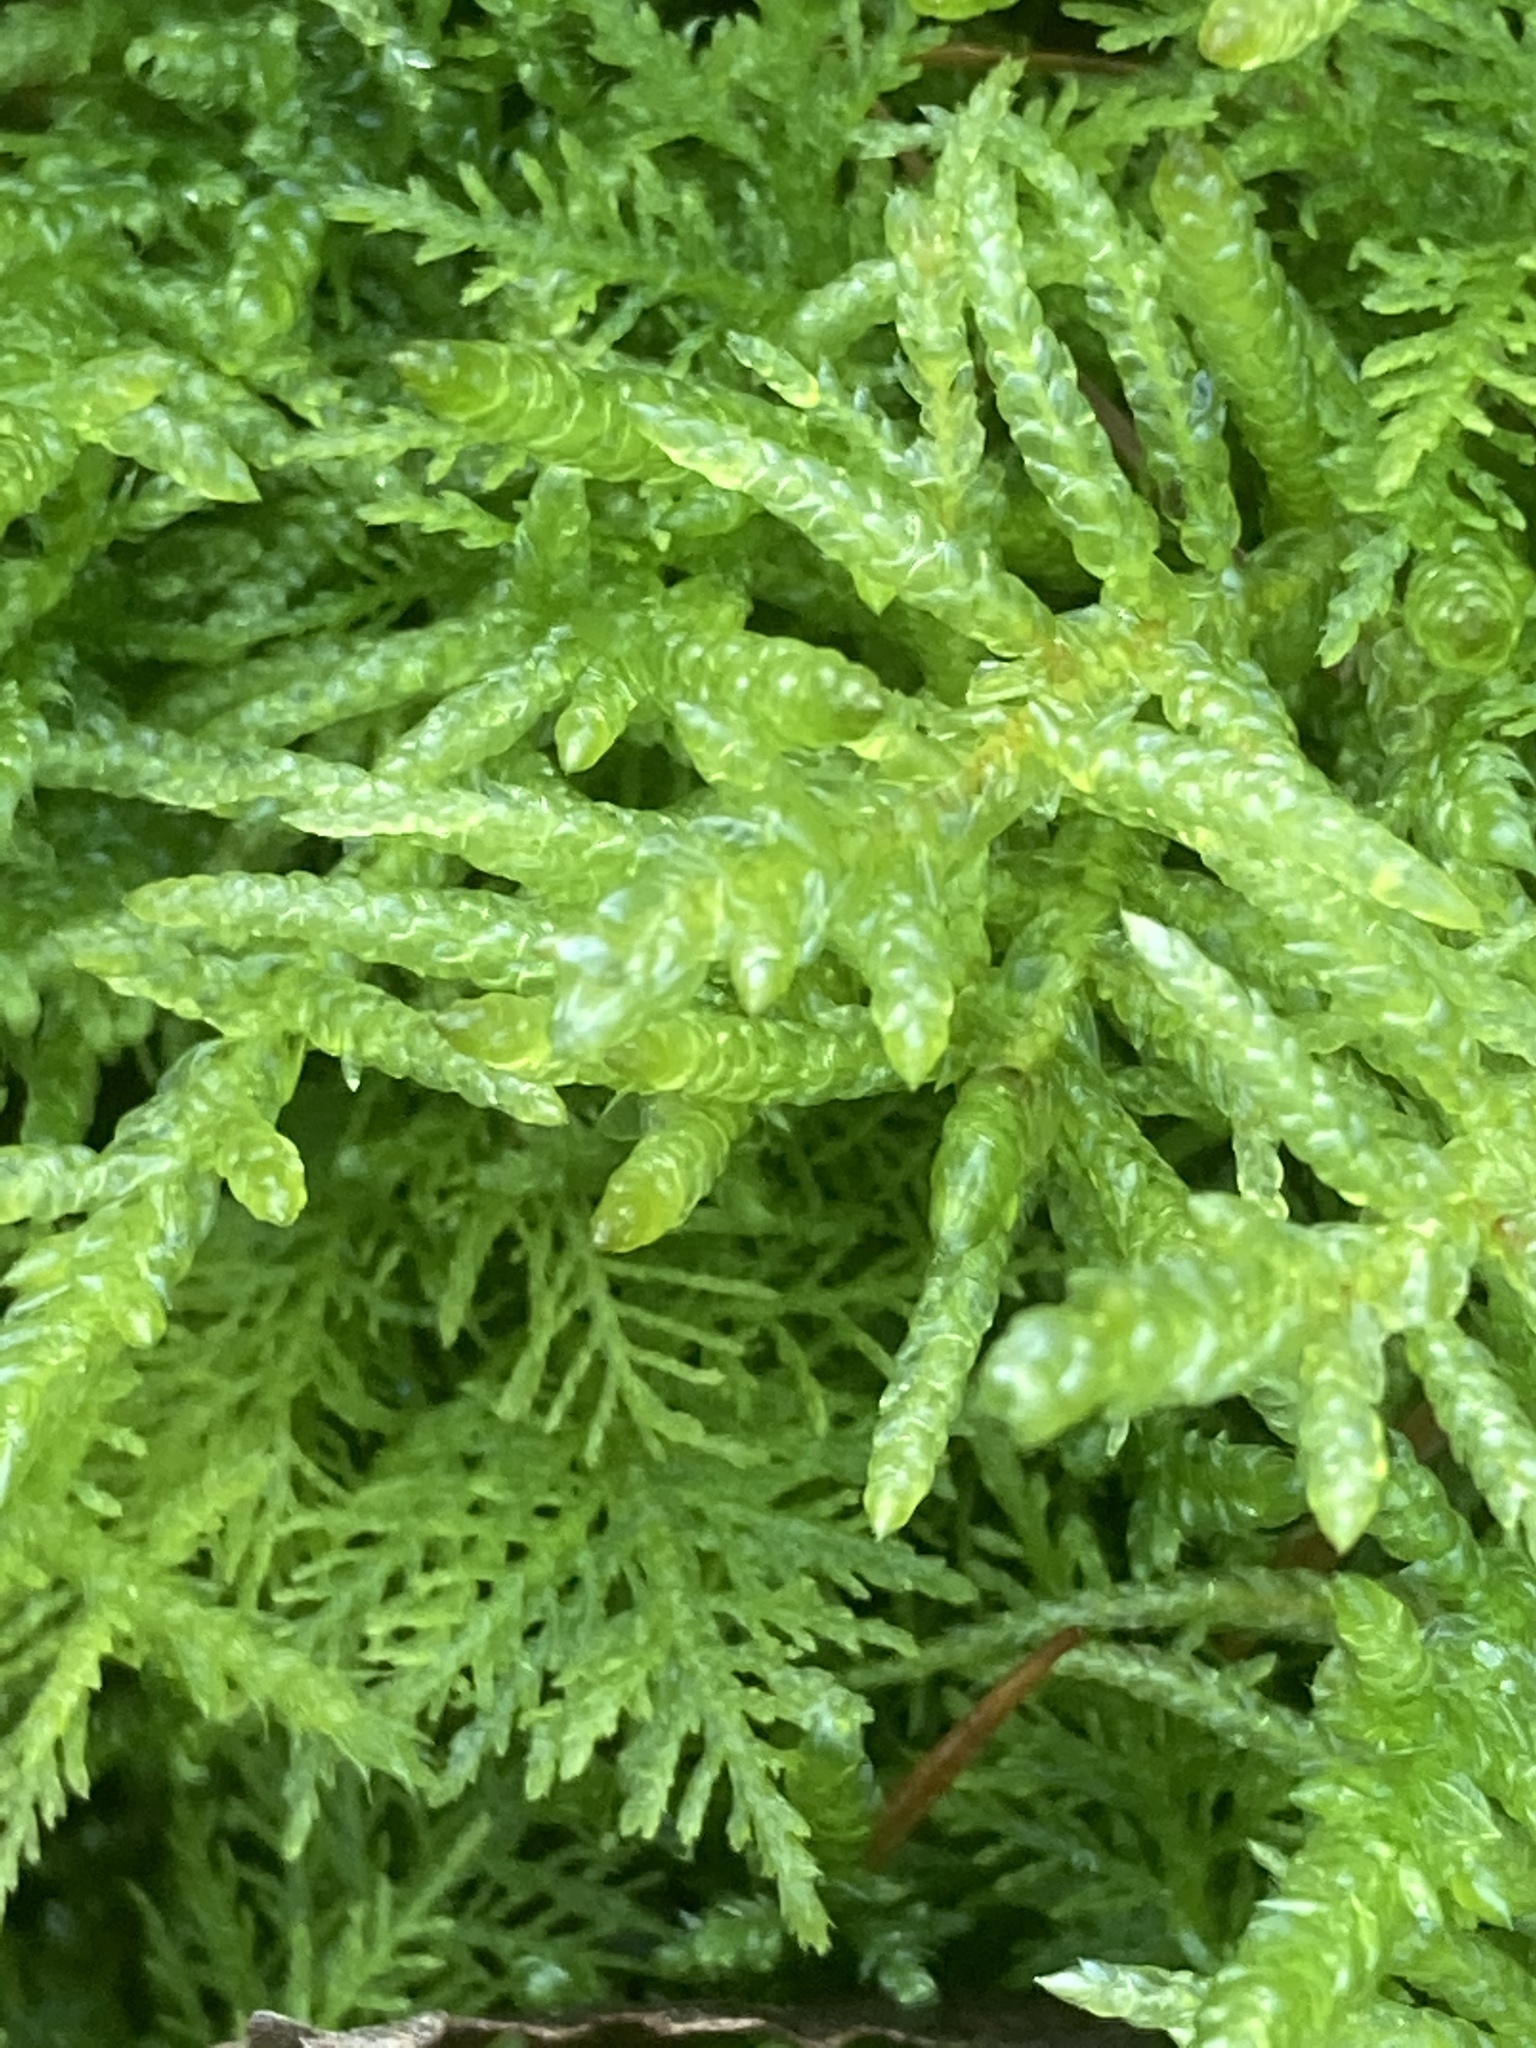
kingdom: Plantae
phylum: Bryophyta
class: Bryopsida
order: Hypnales
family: Brachytheciaceae
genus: Pseudoscleropodium
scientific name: Pseudoscleropodium purum
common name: Neat feather-moss
